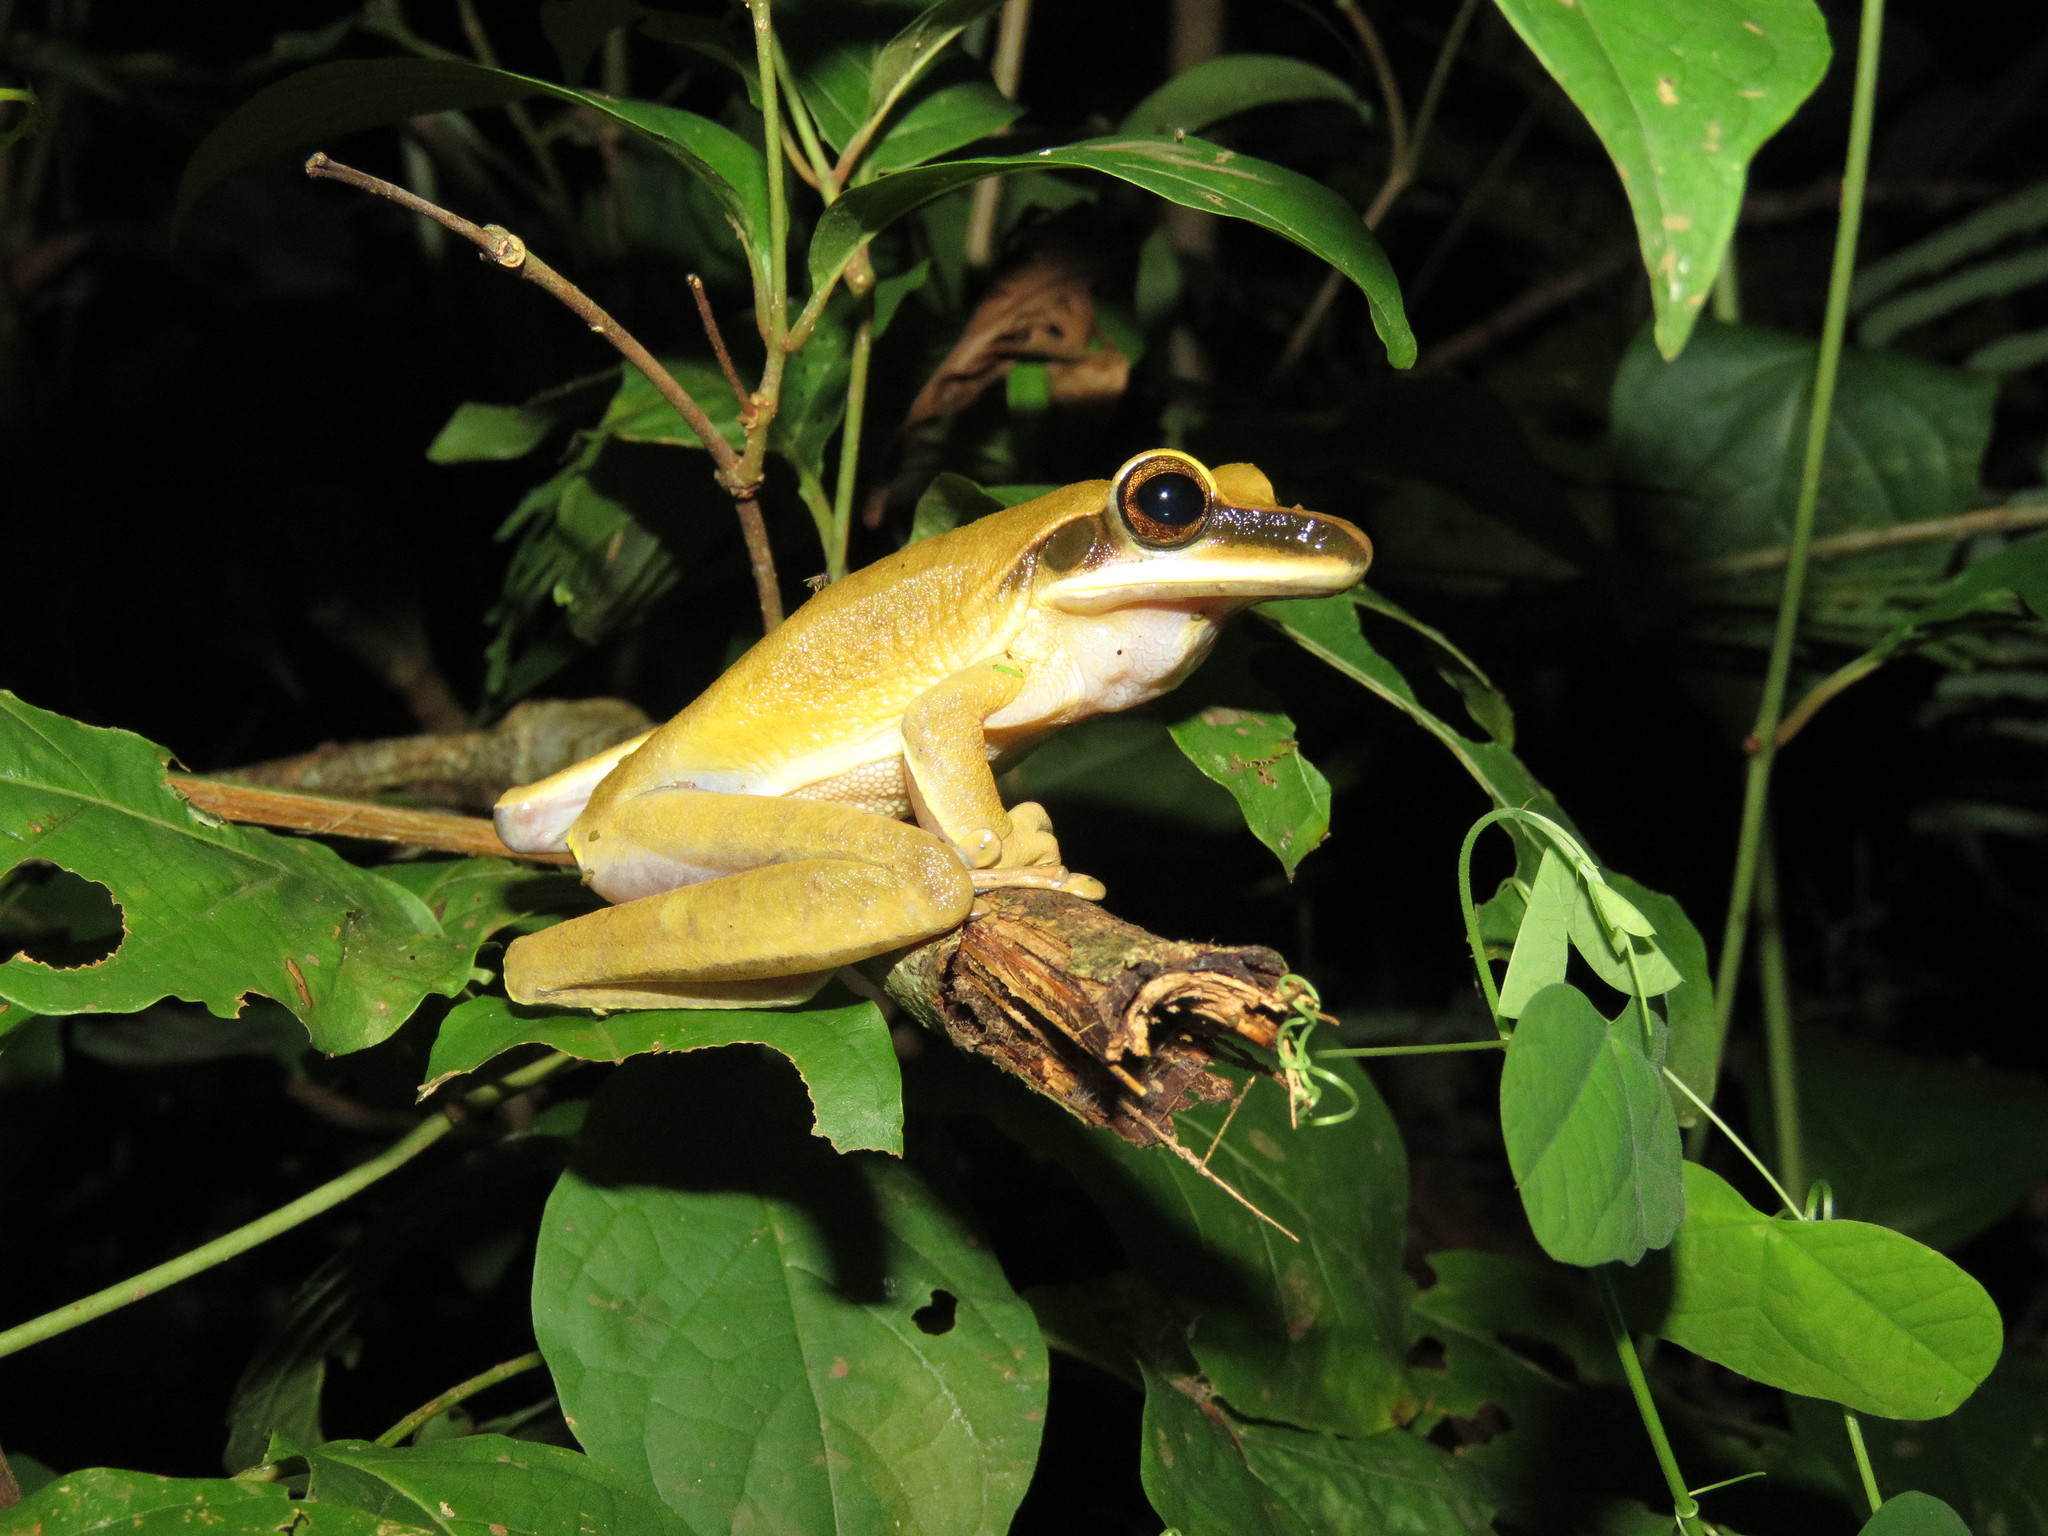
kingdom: Animalia
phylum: Chordata
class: Amphibia
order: Anura
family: Hylidae
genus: Boana
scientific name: Boana lanciformis
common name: Rana lanceolada commún
